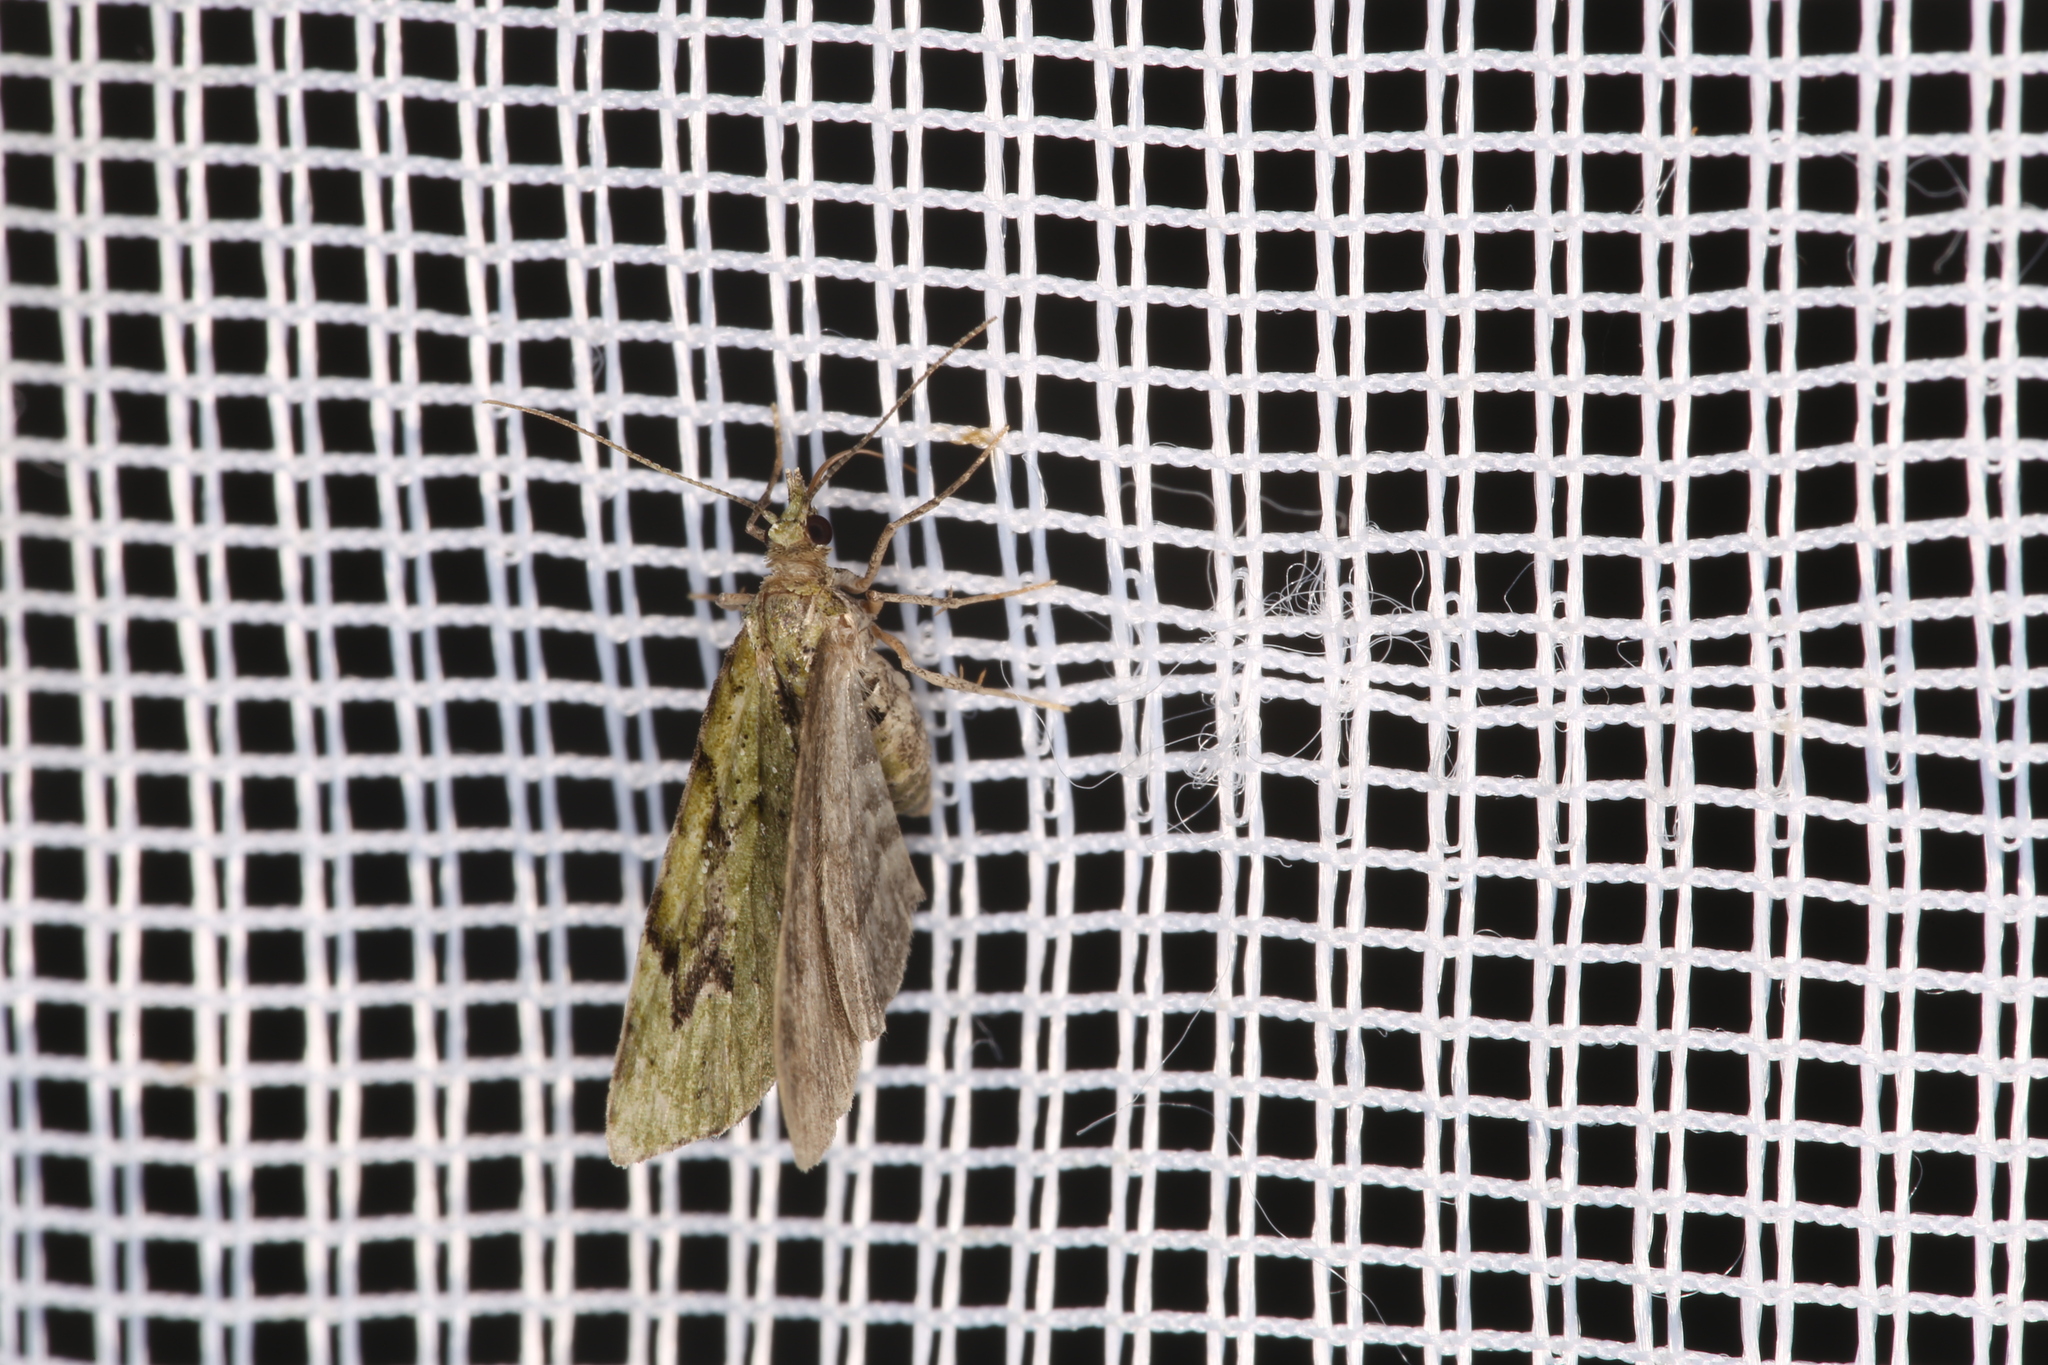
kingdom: Animalia
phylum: Arthropoda
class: Insecta
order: Lepidoptera
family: Geometridae
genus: Chloroclystis
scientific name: Chloroclystis v-ata
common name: V-pug
